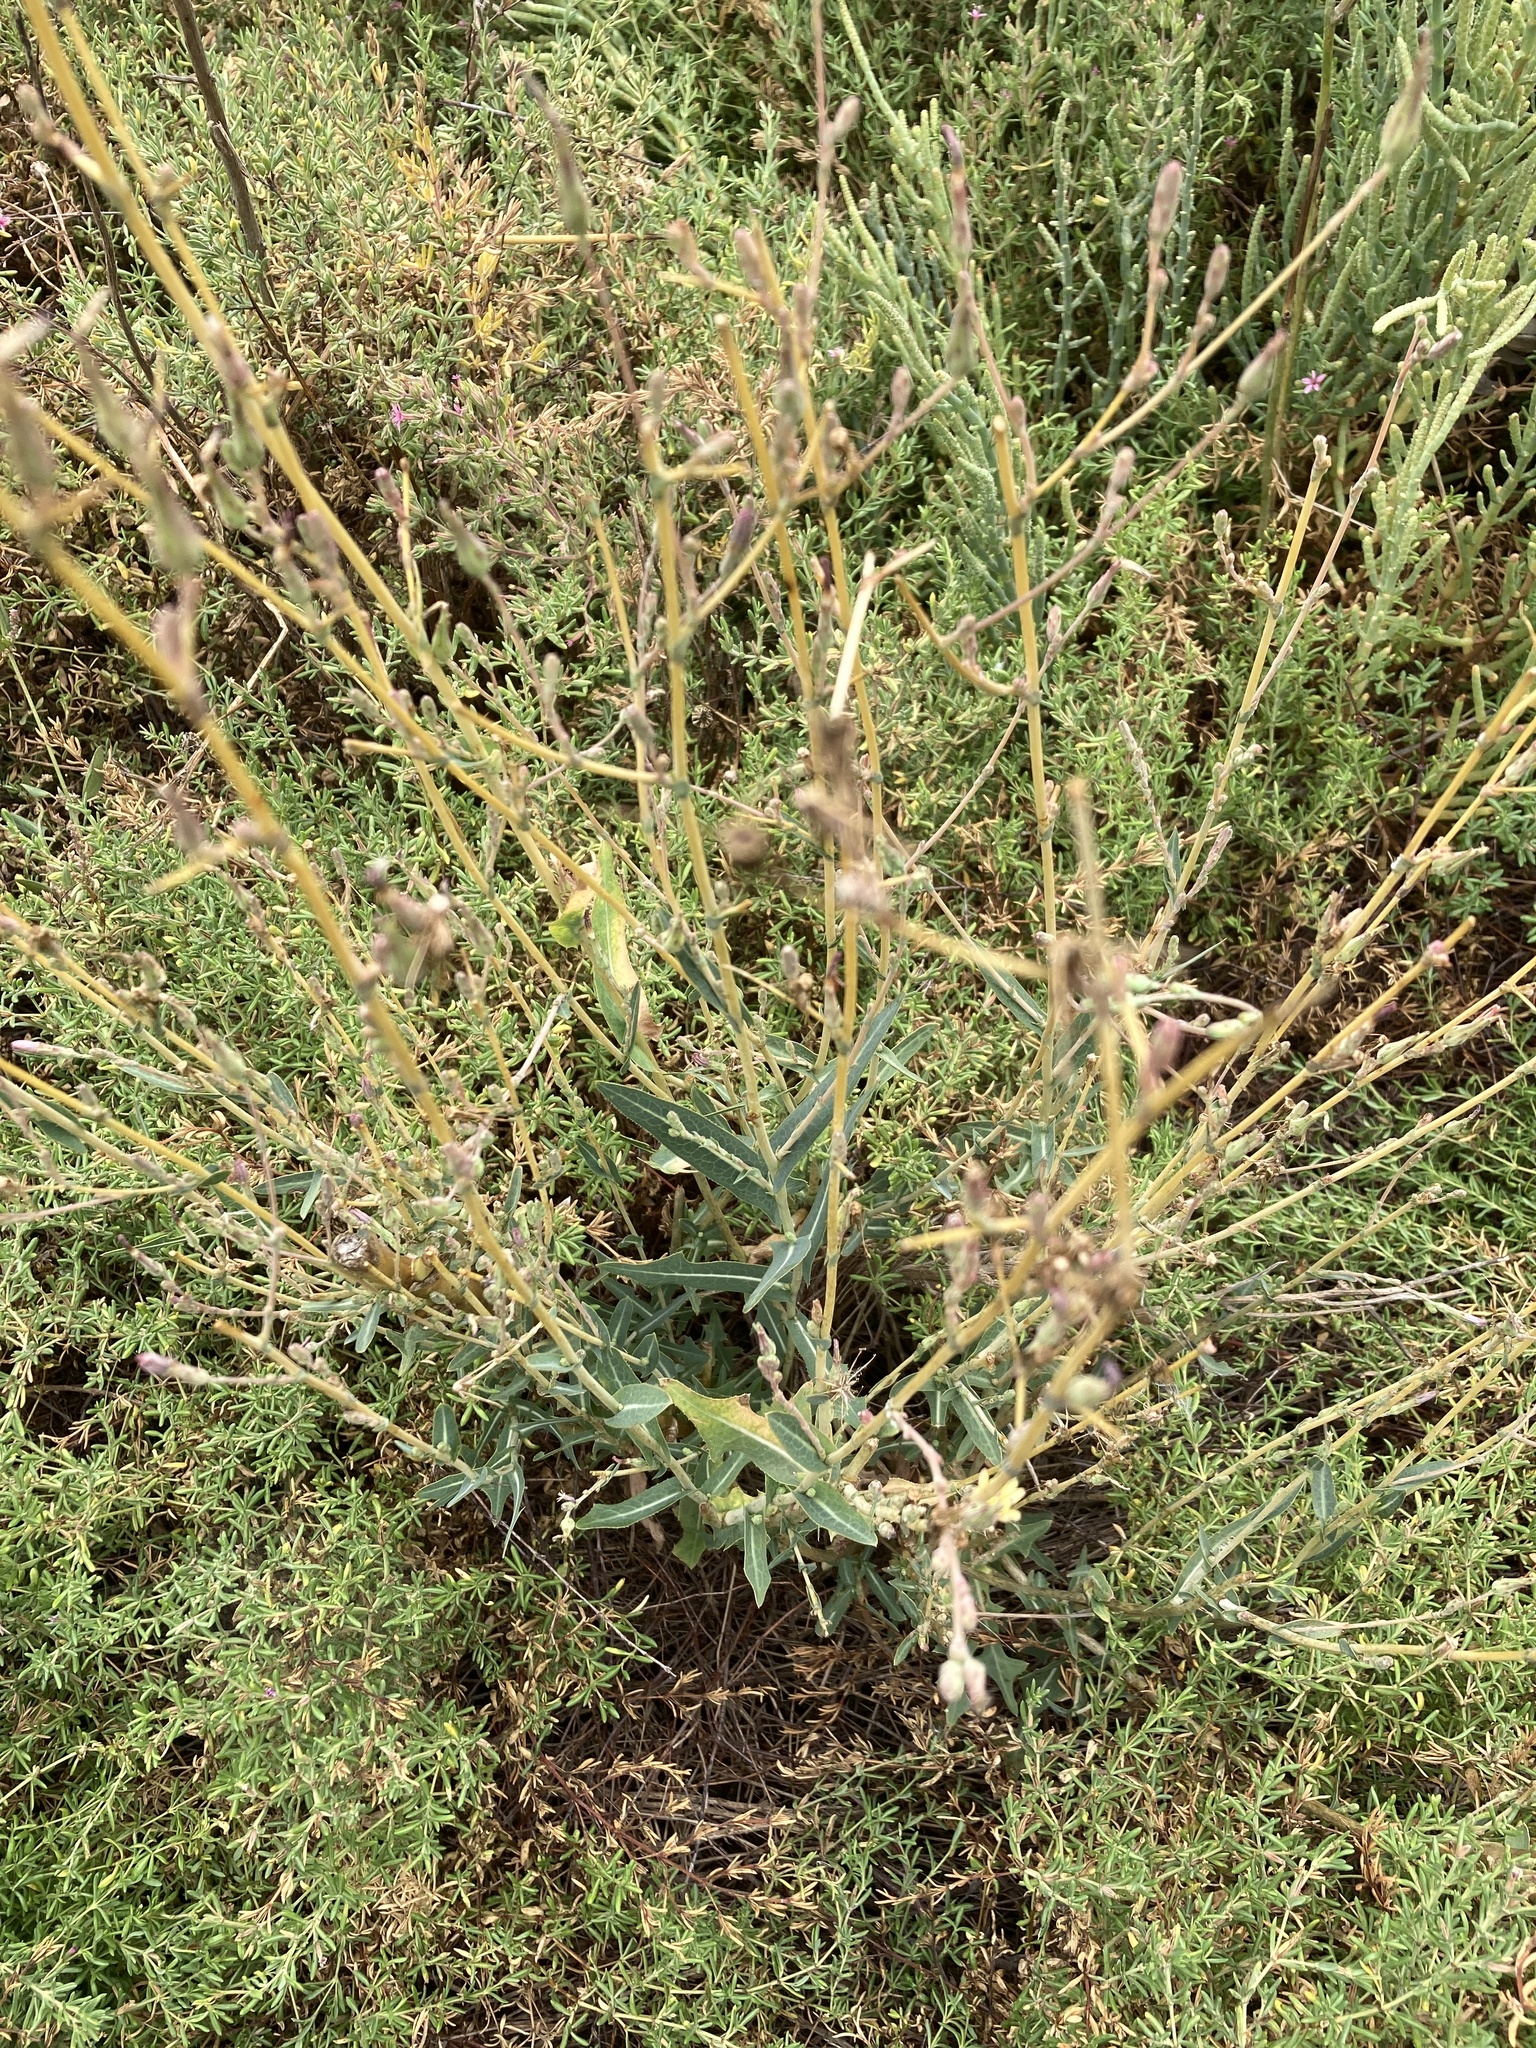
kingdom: Plantae
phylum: Tracheophyta
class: Magnoliopsida
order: Asterales
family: Asteraceae
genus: Lactuca
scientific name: Lactuca serriola
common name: Prickly lettuce
